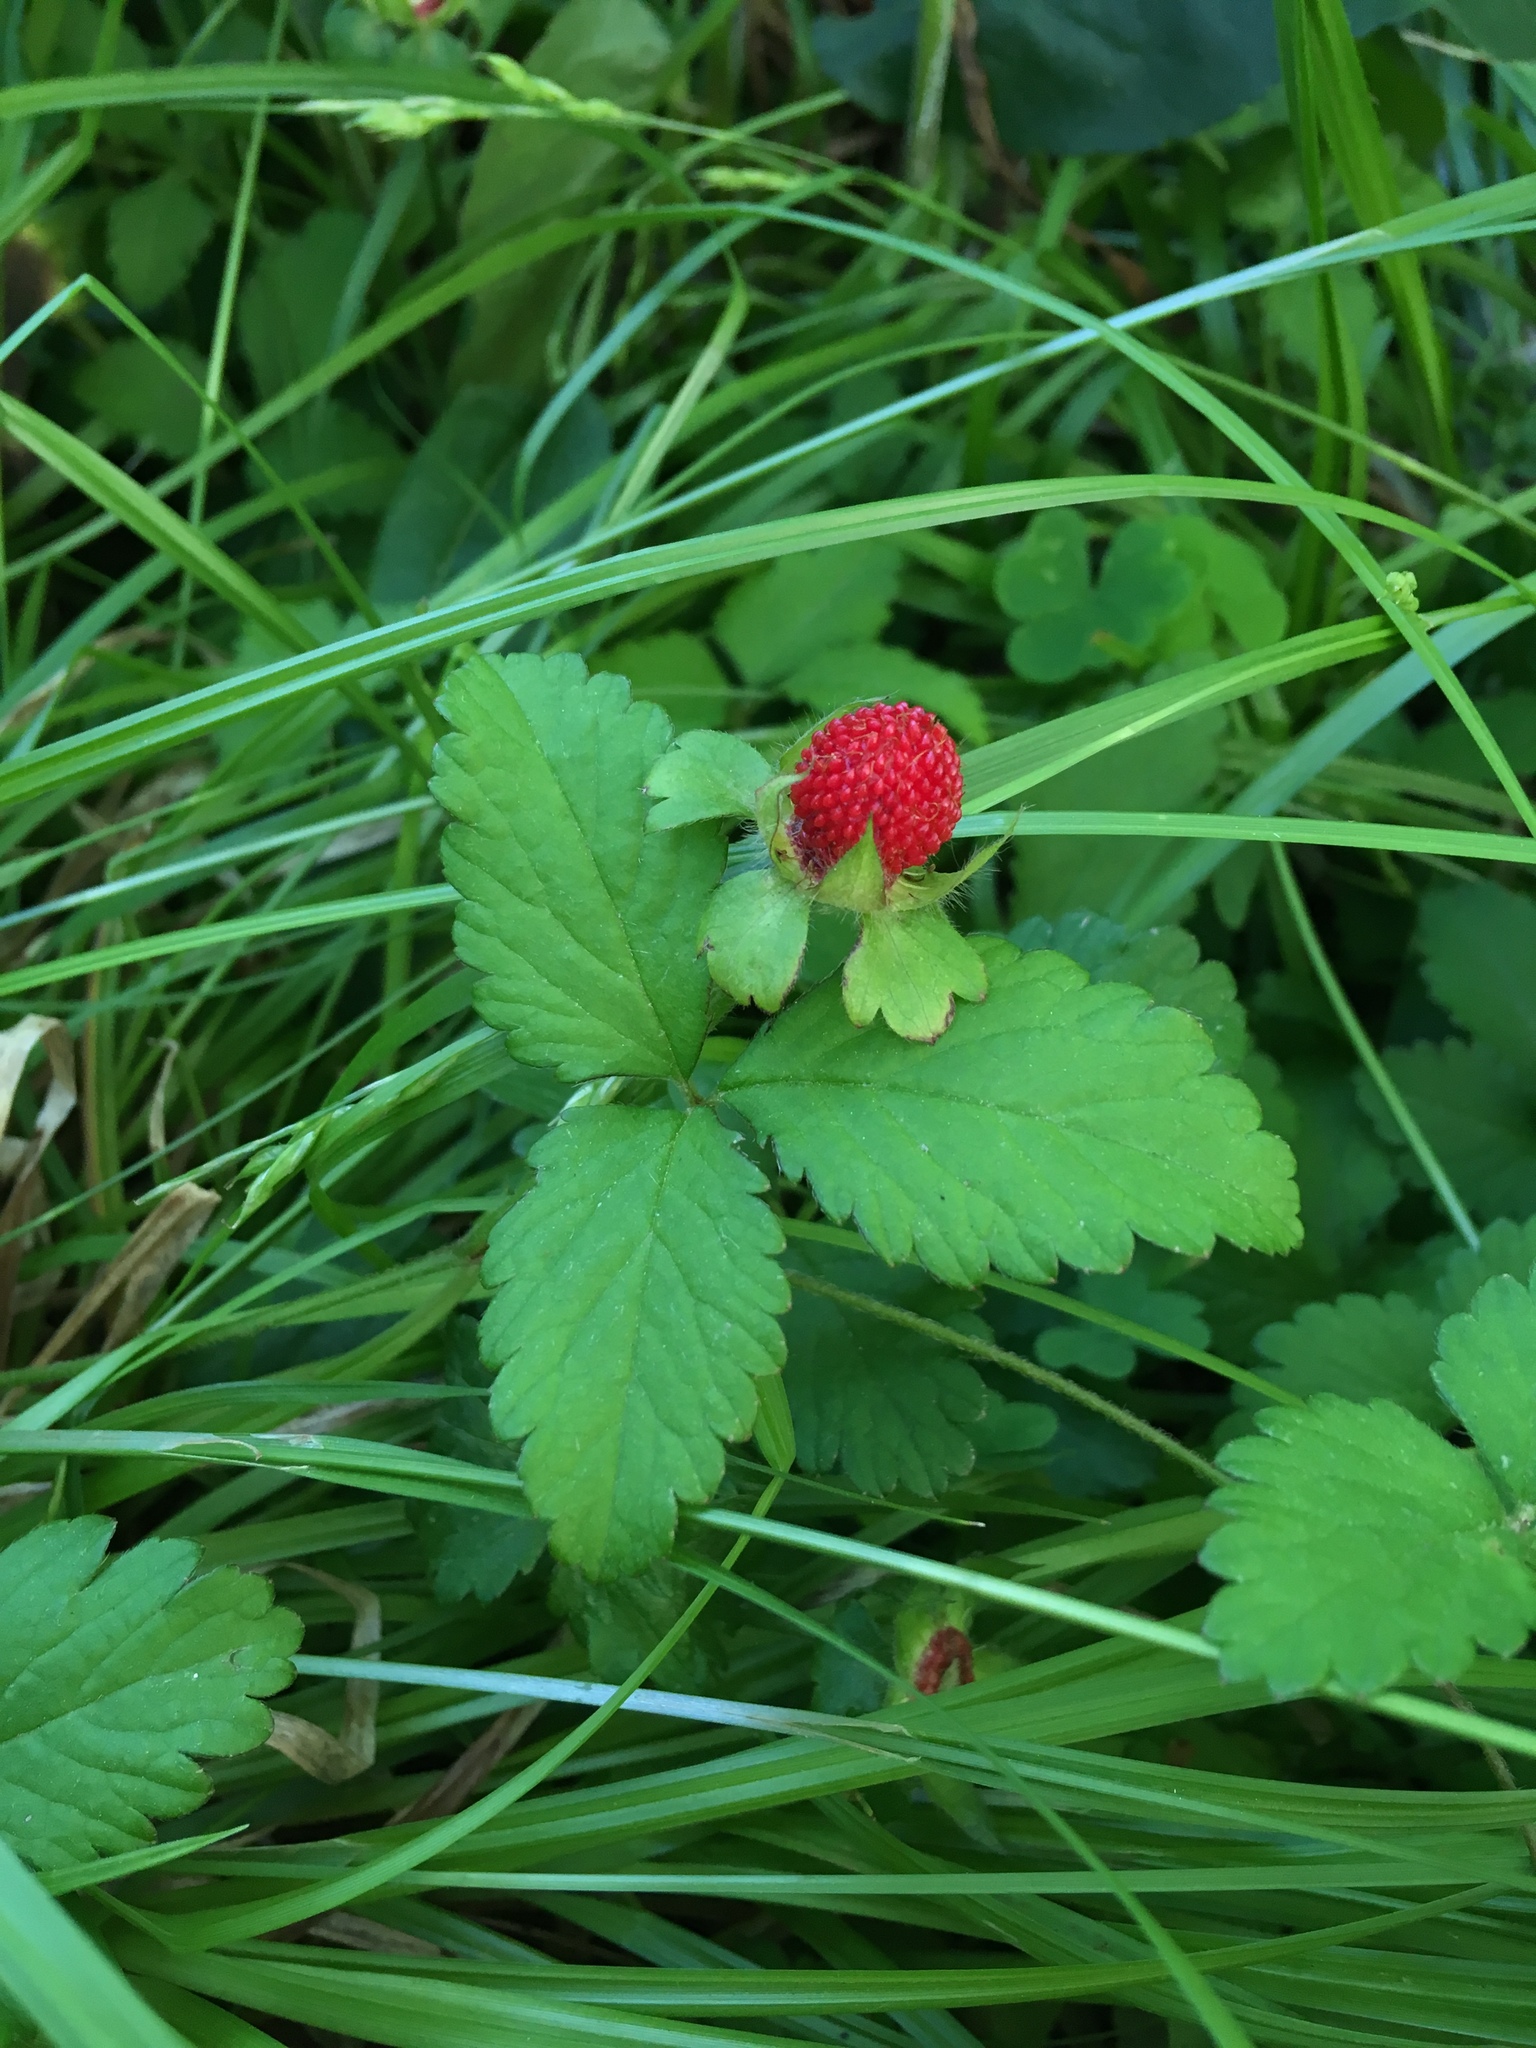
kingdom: Plantae
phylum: Tracheophyta
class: Magnoliopsida
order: Rosales
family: Rosaceae
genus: Potentilla
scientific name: Potentilla indica
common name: Yellow-flowered strawberry
